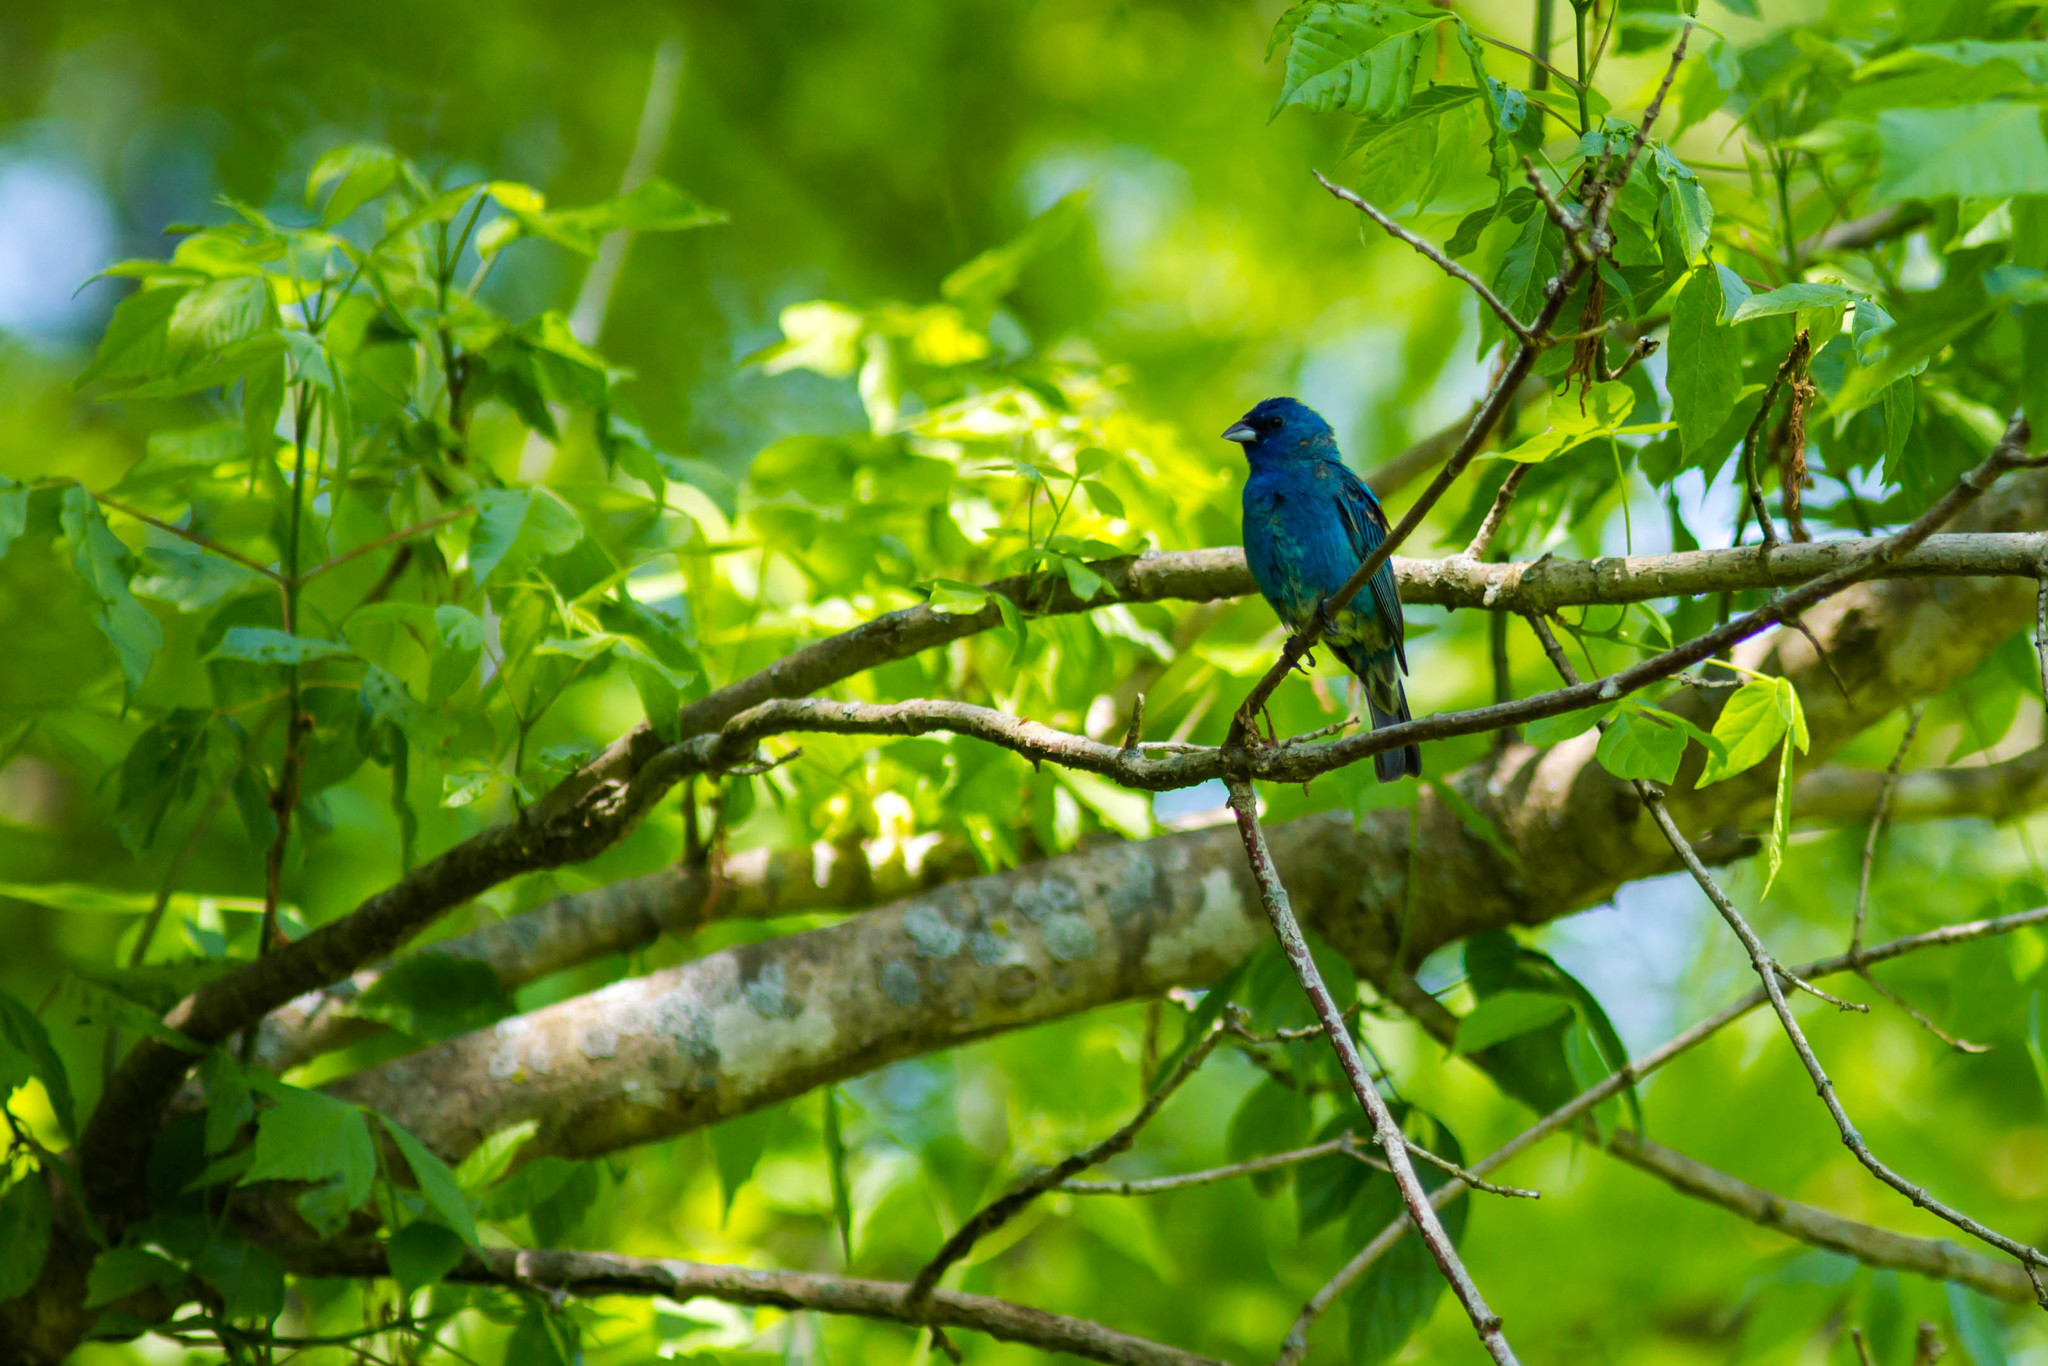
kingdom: Animalia
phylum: Chordata
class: Aves
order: Passeriformes
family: Cardinalidae
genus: Passerina
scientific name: Passerina cyanea
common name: Indigo bunting
